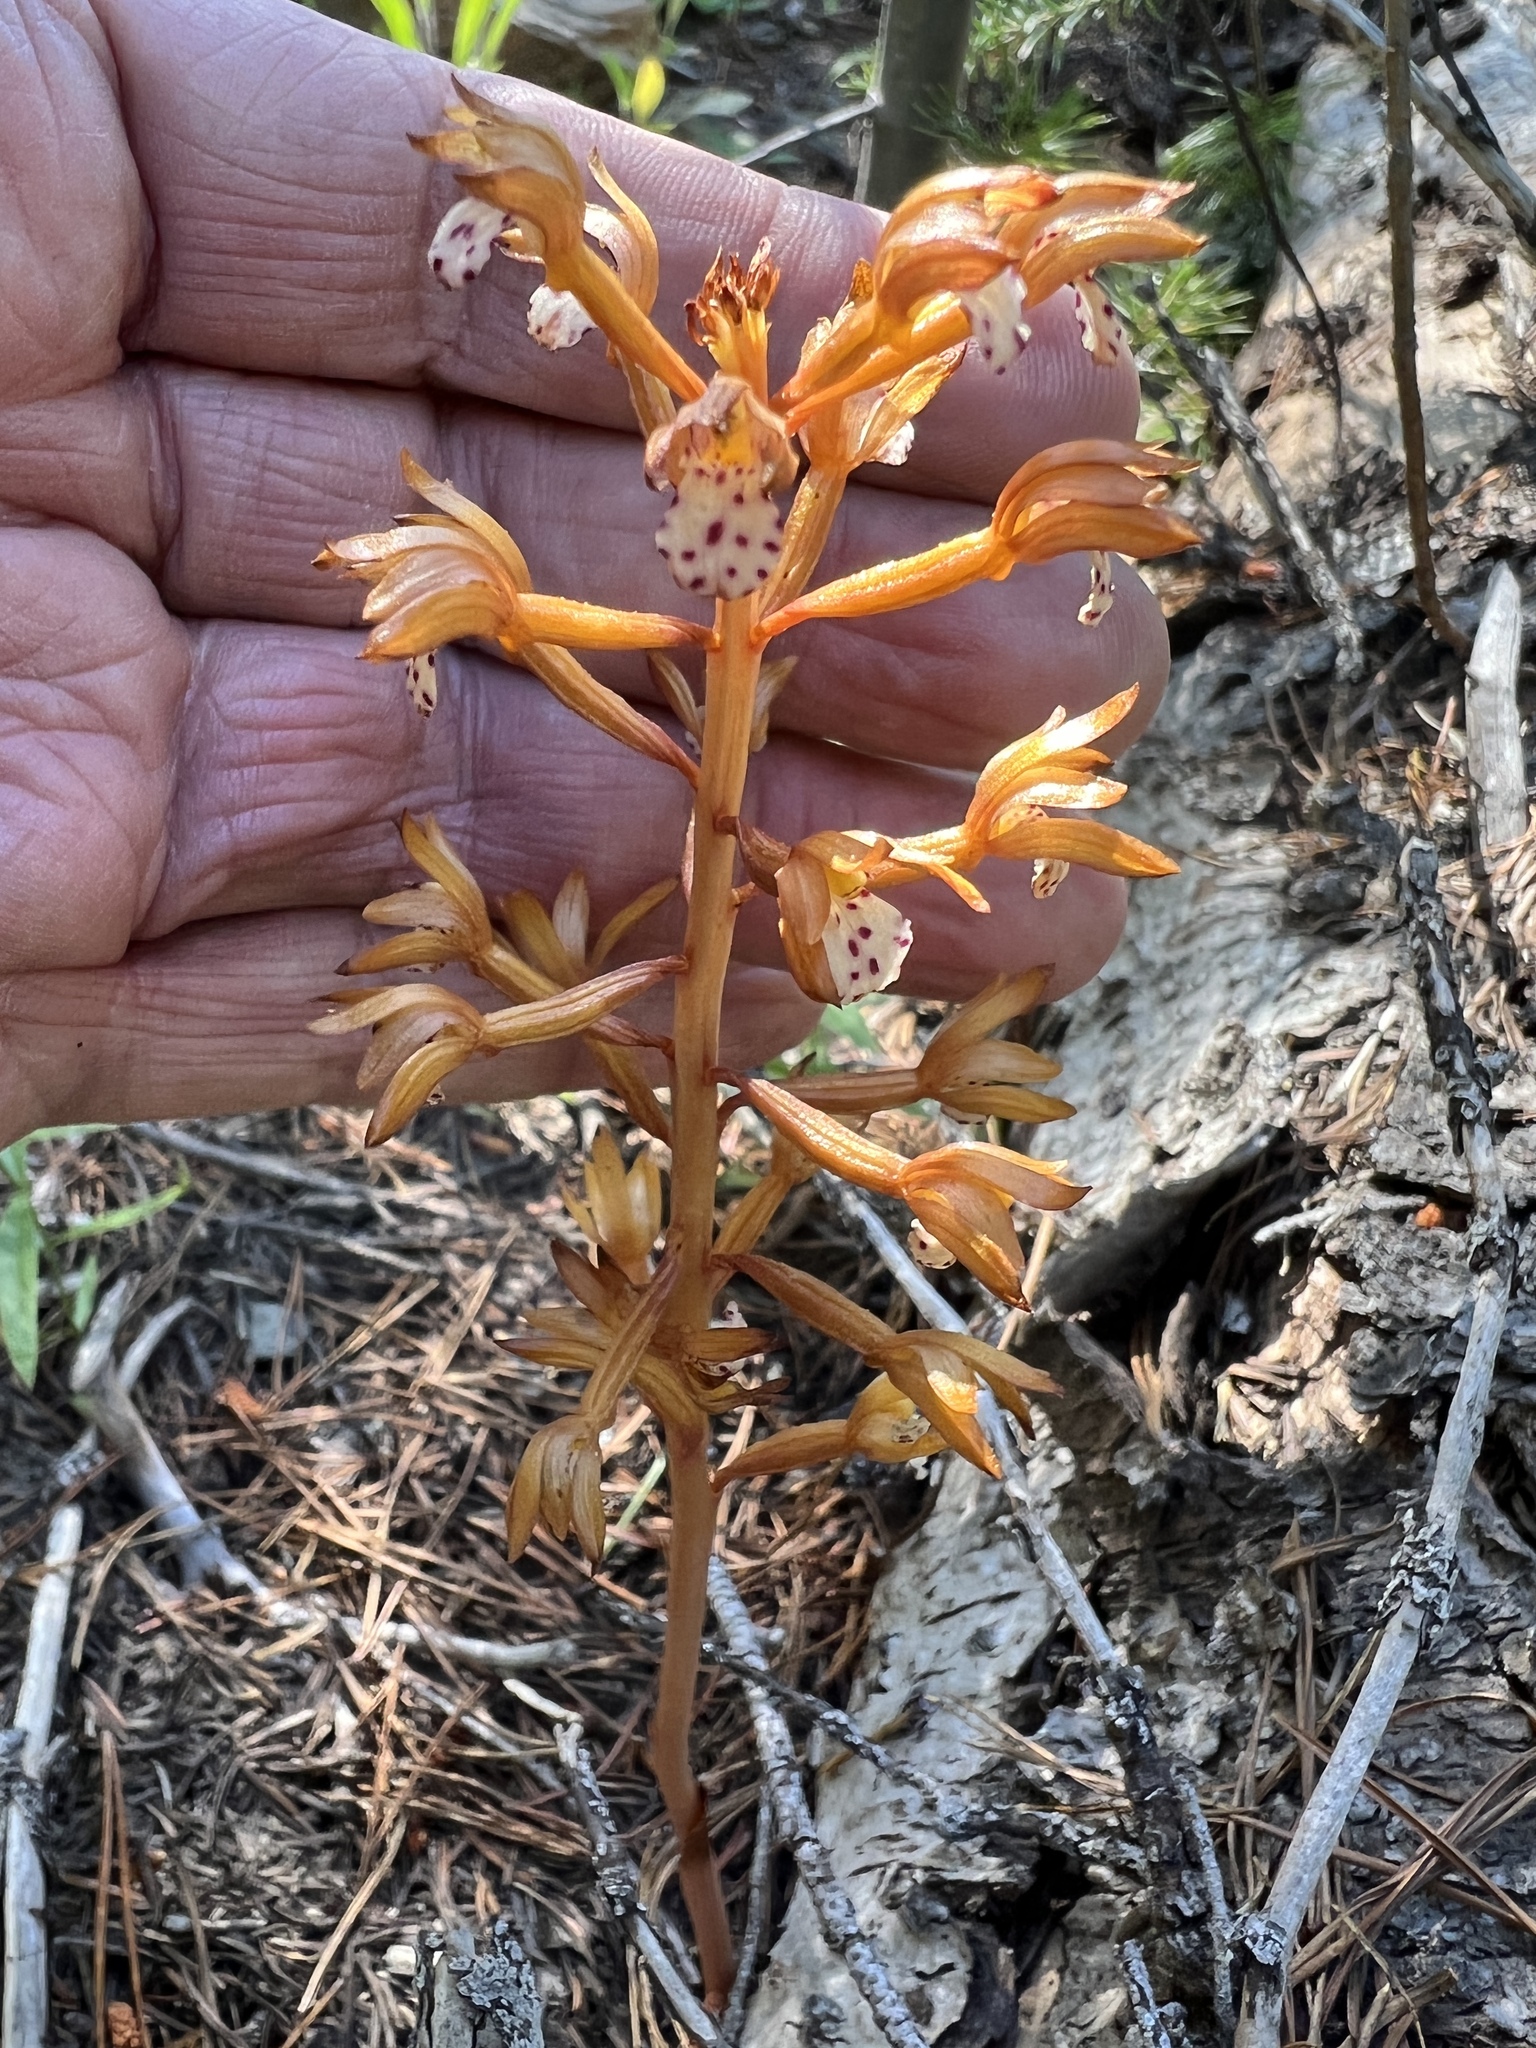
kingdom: Plantae
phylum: Tracheophyta
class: Liliopsida
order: Asparagales
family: Orchidaceae
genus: Corallorhiza
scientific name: Corallorhiza maculata
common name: Spotted coralroot
